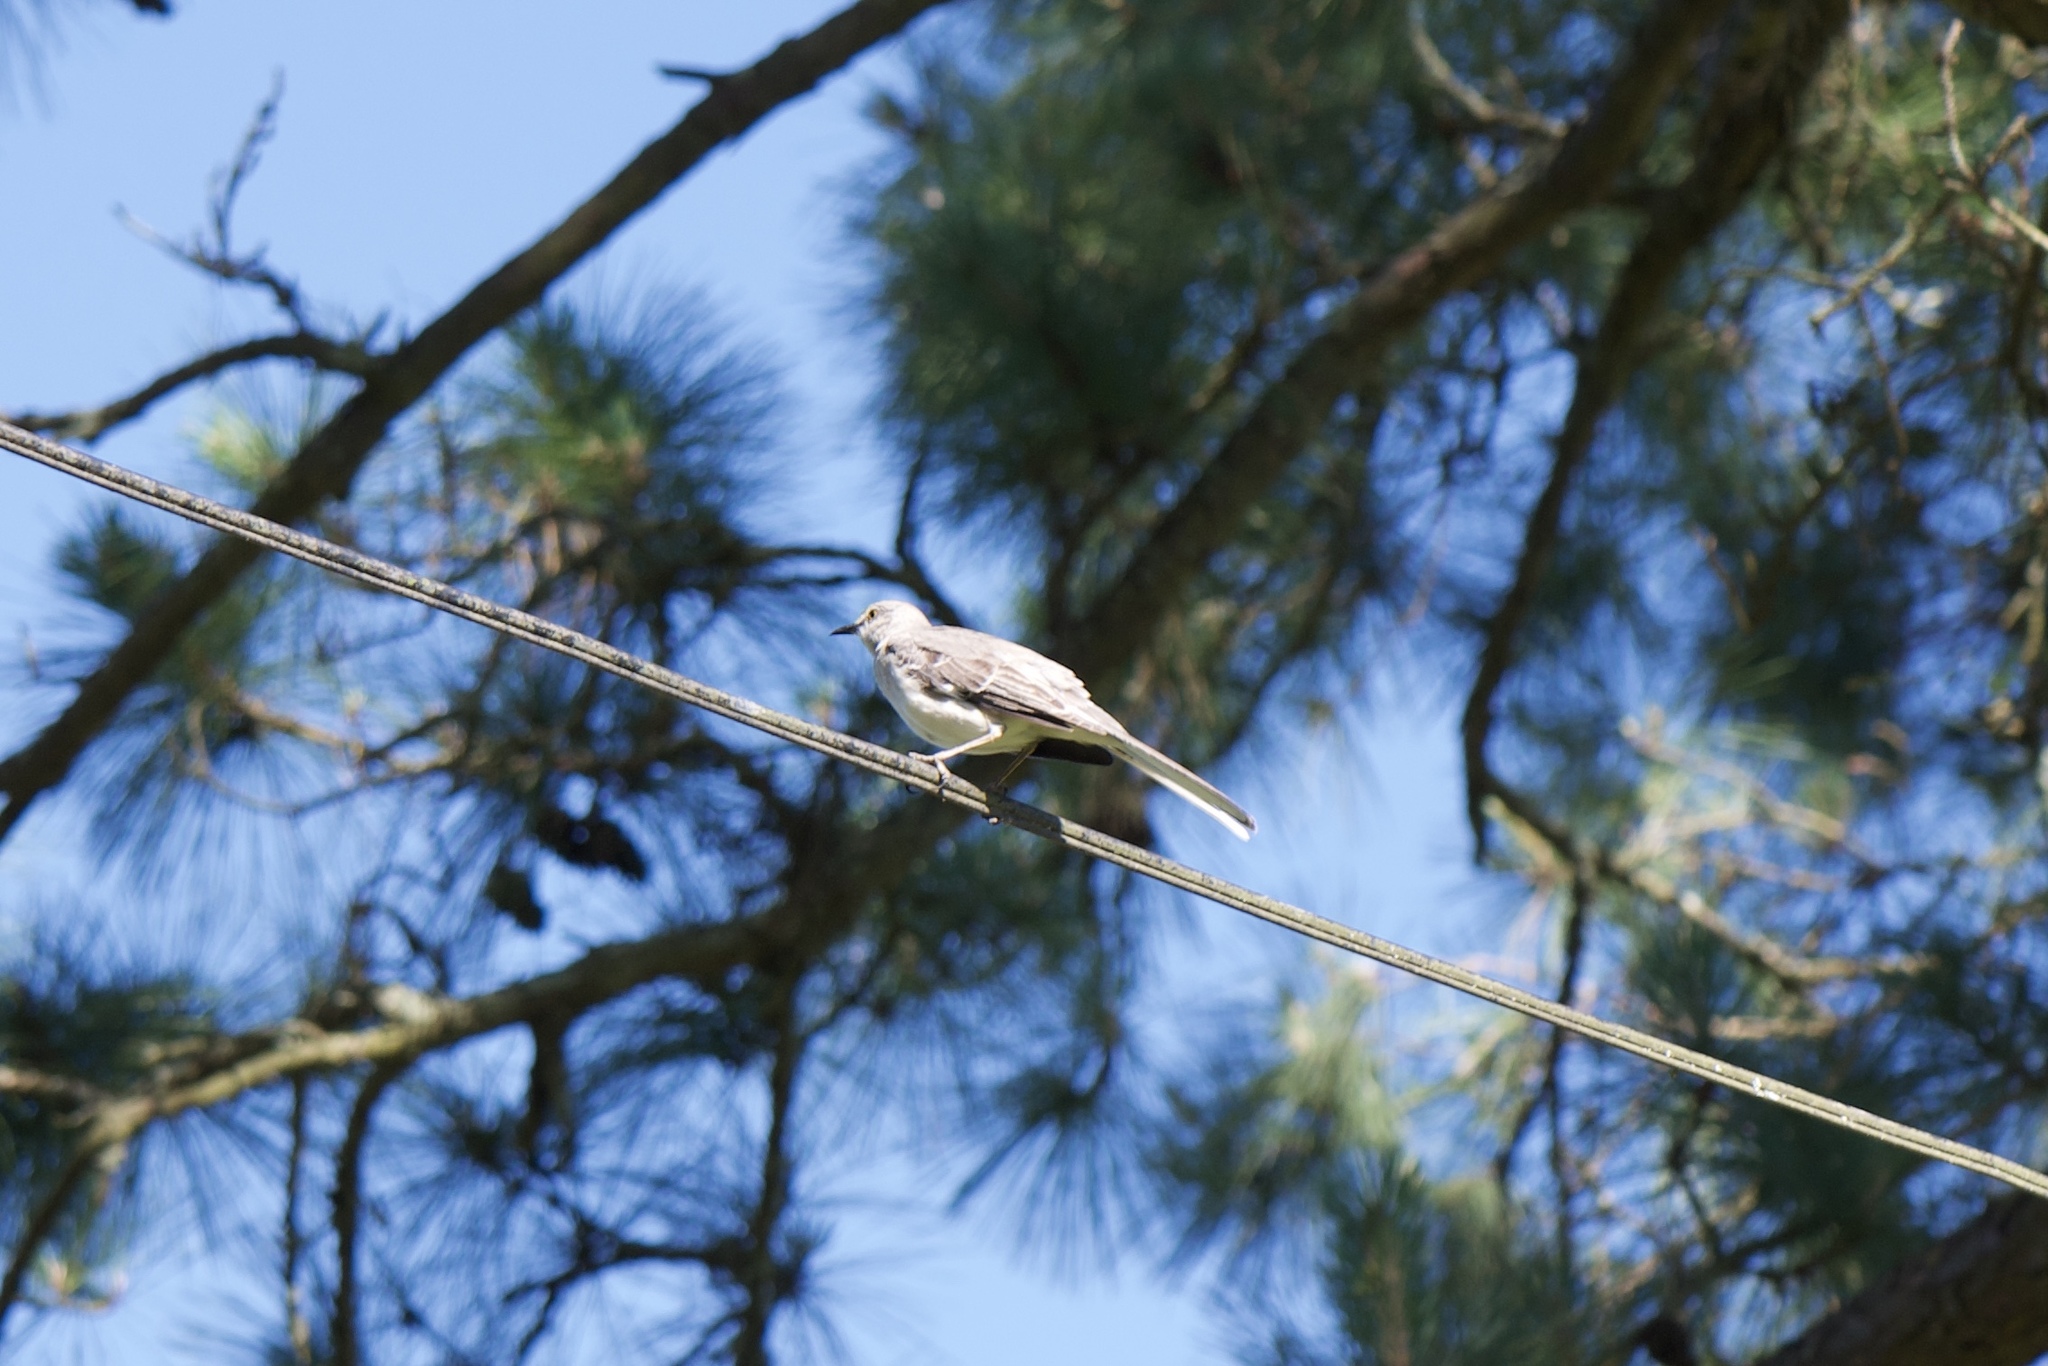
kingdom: Animalia
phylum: Chordata
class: Aves
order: Passeriformes
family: Mimidae
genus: Mimus
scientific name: Mimus polyglottos
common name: Northern mockingbird
